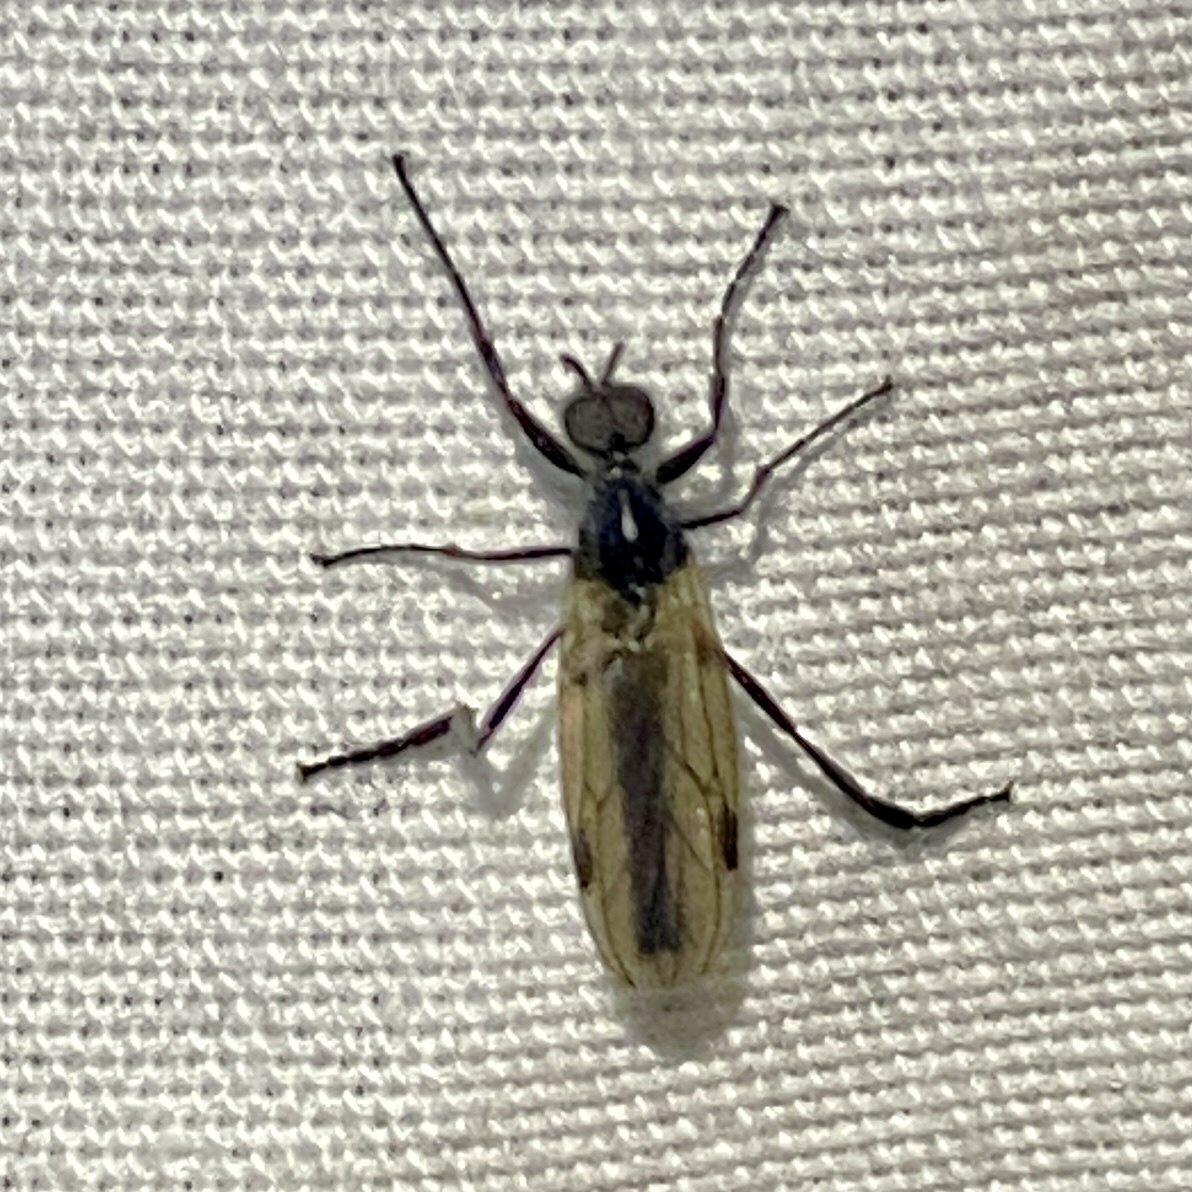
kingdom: Animalia
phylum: Arthropoda
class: Insecta
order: Diptera
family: Bibionidae
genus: Bibio
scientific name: Bibio slossonae
